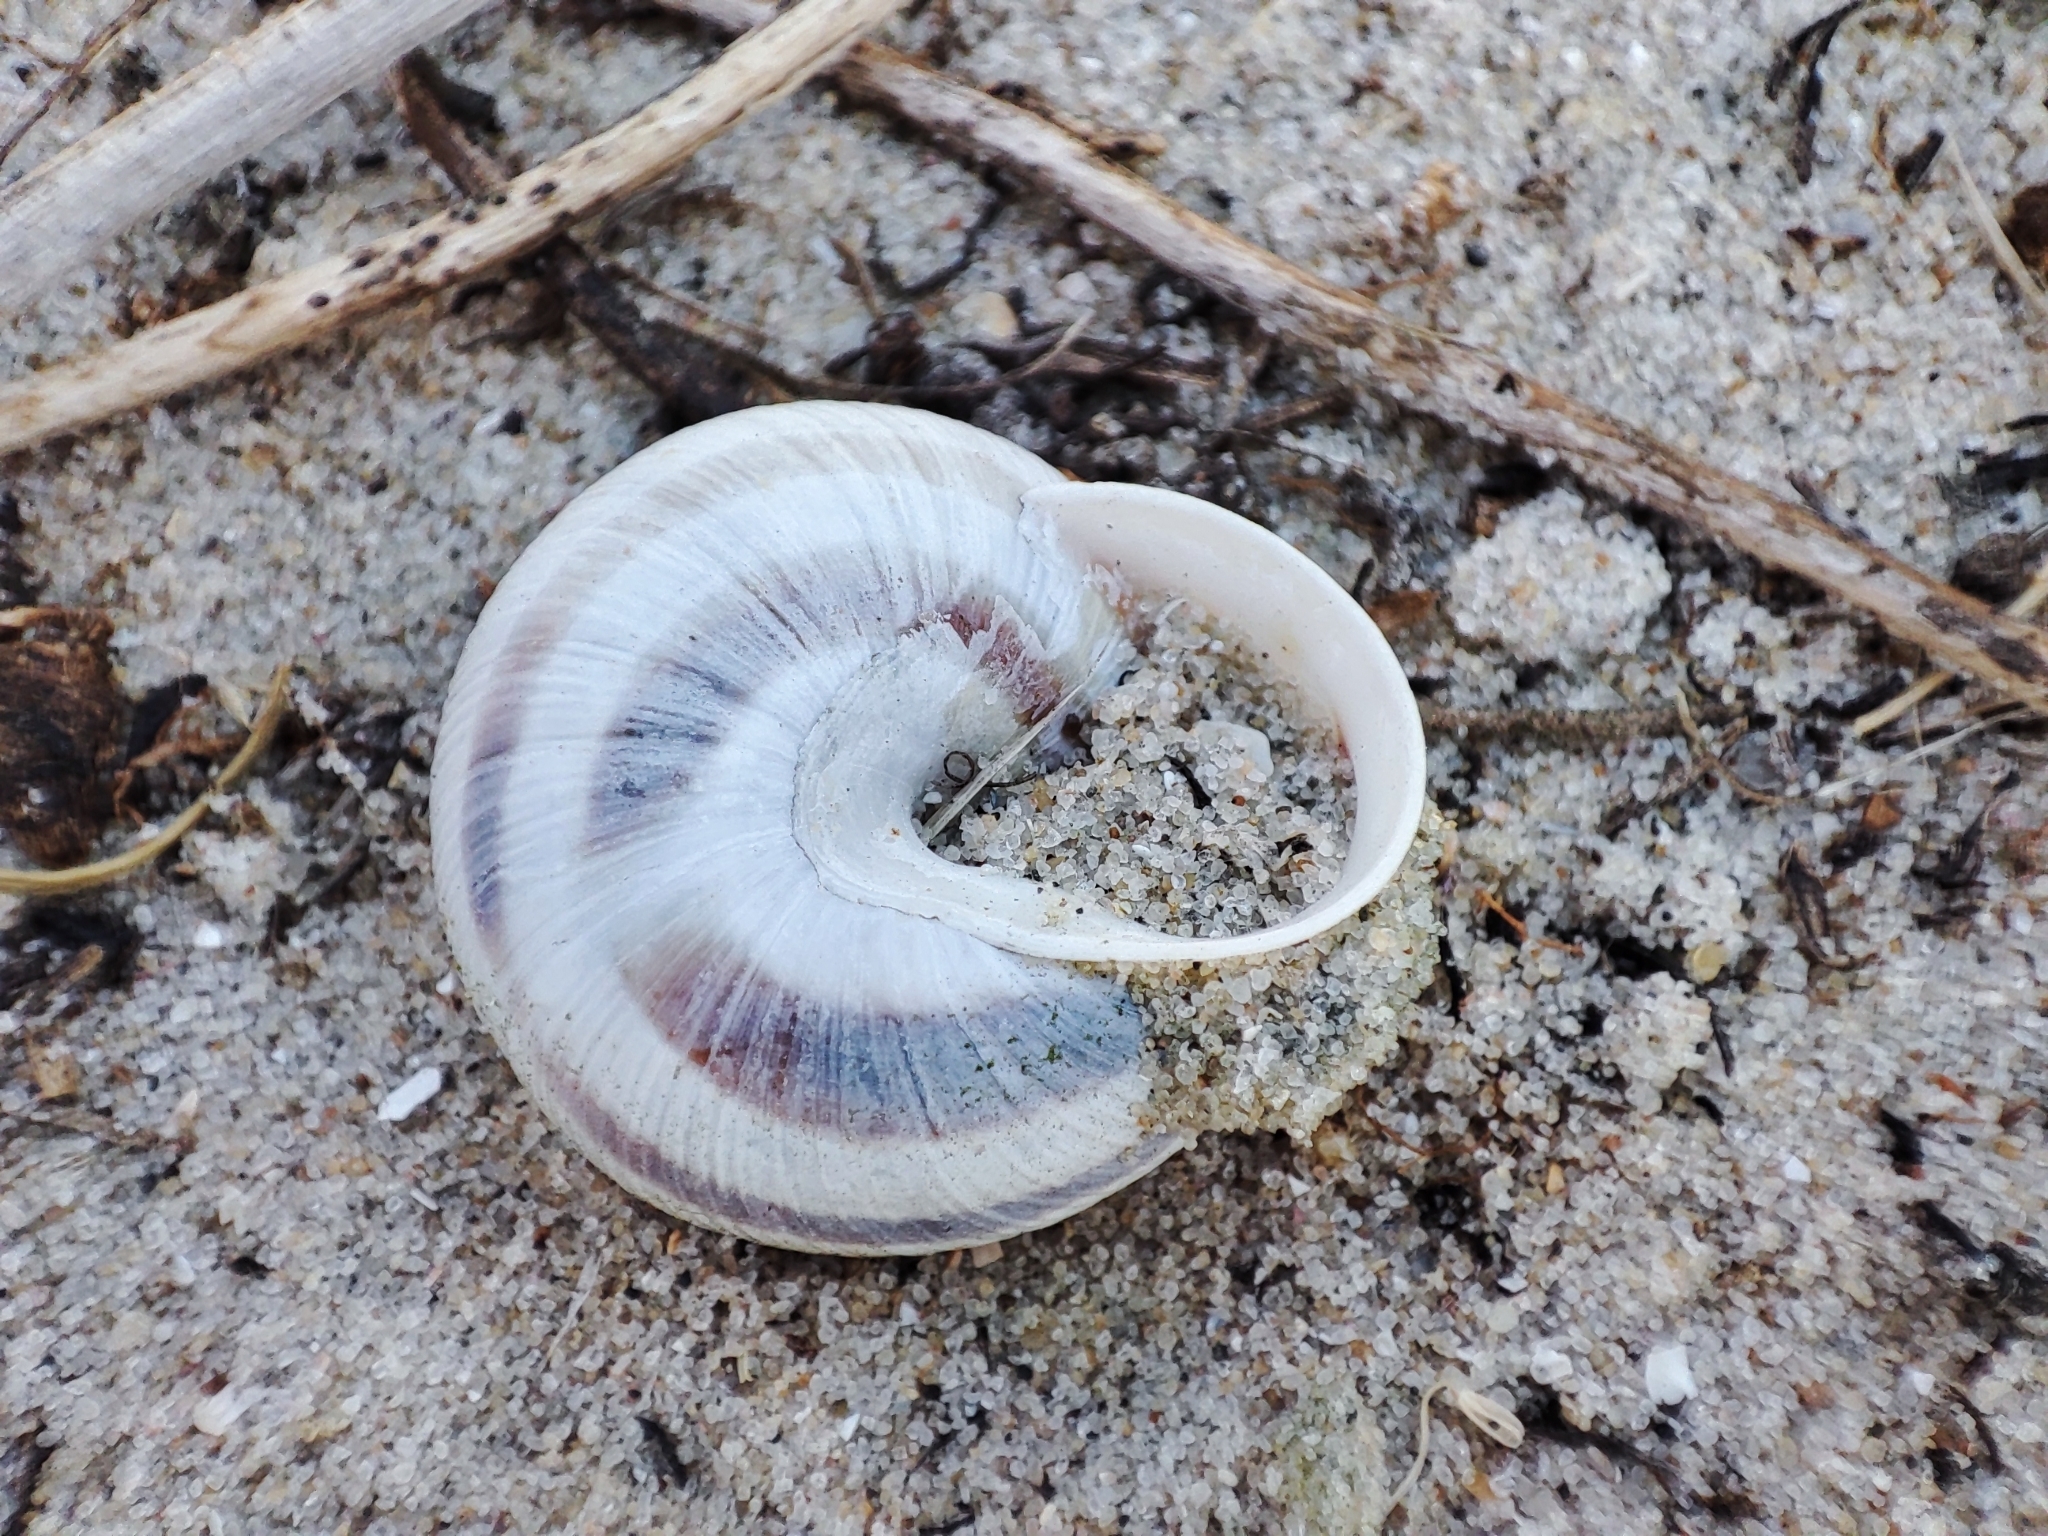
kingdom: Animalia
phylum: Mollusca
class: Gastropoda
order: Stylommatophora
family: Helicidae
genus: Caucasotachea
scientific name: Caucasotachea vindobonensis
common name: European helicid land snail
